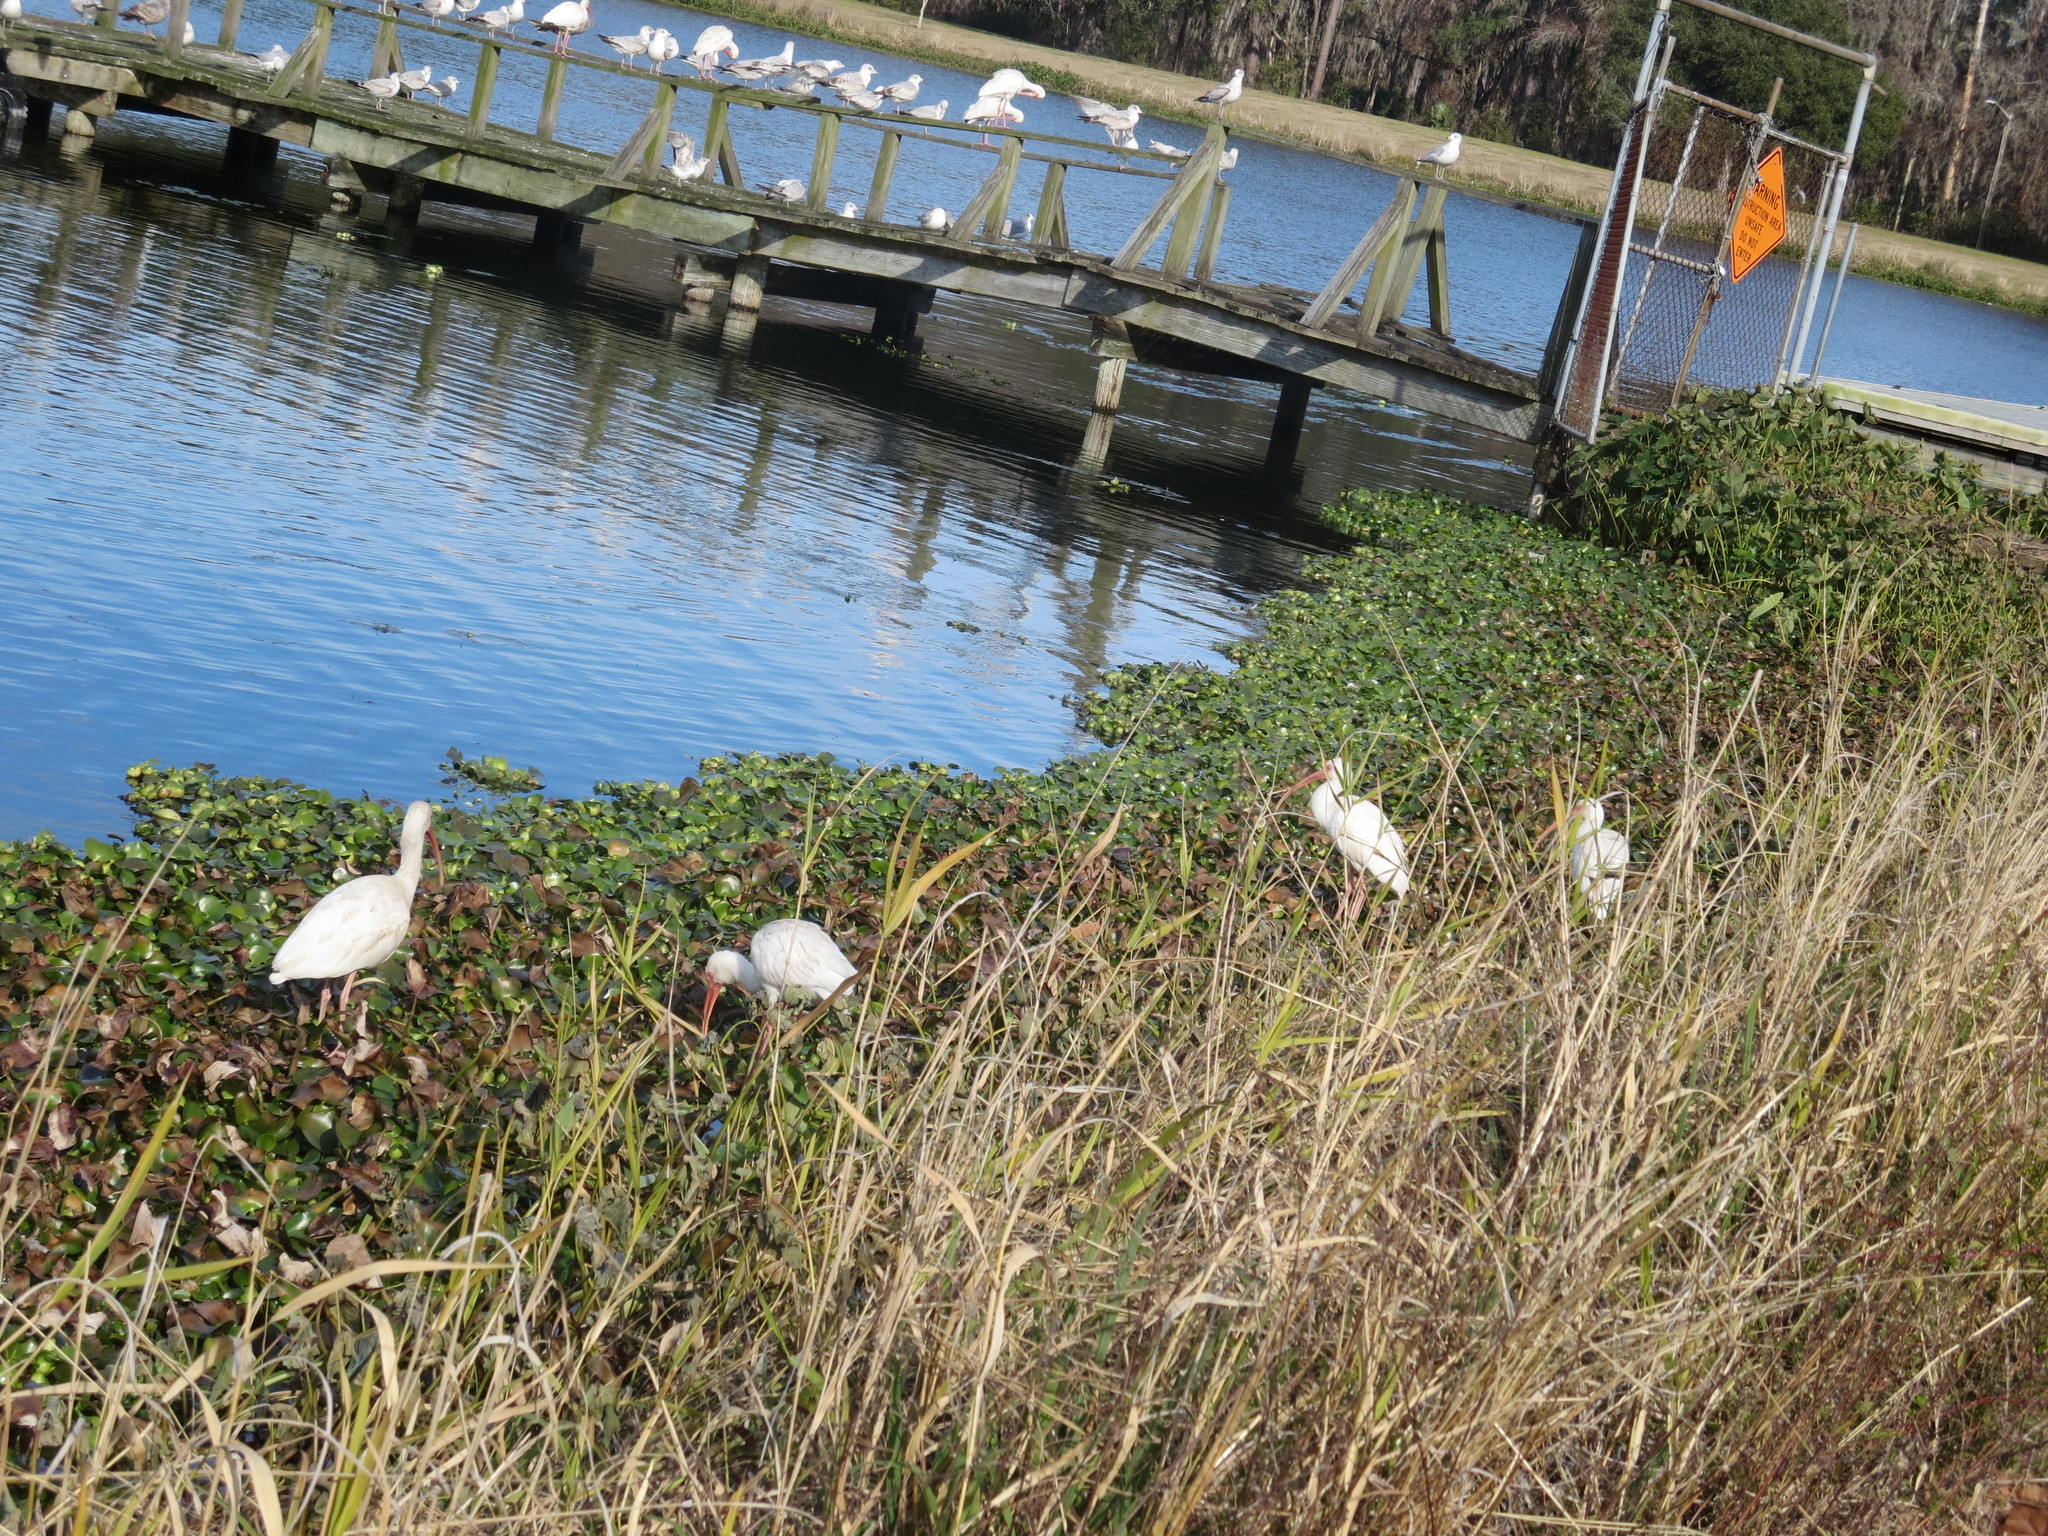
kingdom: Animalia
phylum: Chordata
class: Aves
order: Pelecaniformes
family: Threskiornithidae
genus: Eudocimus
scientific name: Eudocimus albus
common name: White ibis
